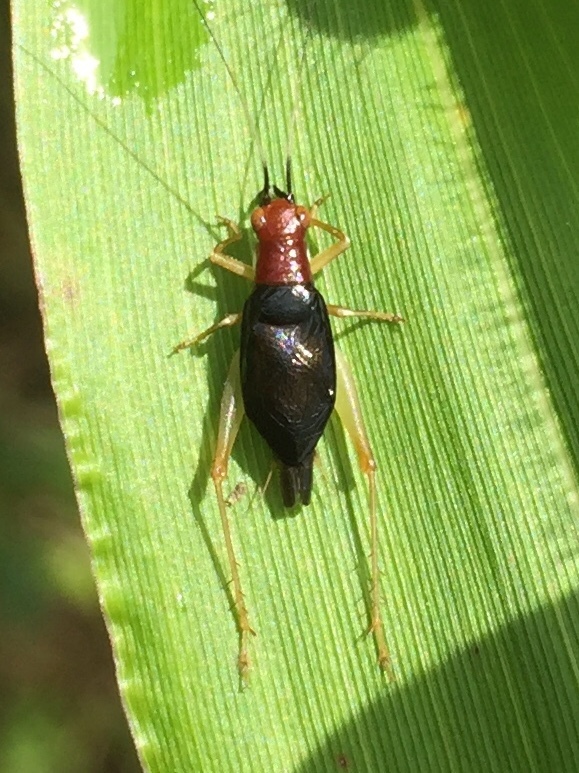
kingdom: Animalia
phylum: Arthropoda
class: Insecta
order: Orthoptera
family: Trigonidiidae
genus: Phyllopalpus
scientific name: Phyllopalpus pulchellus
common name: Handsome trig
